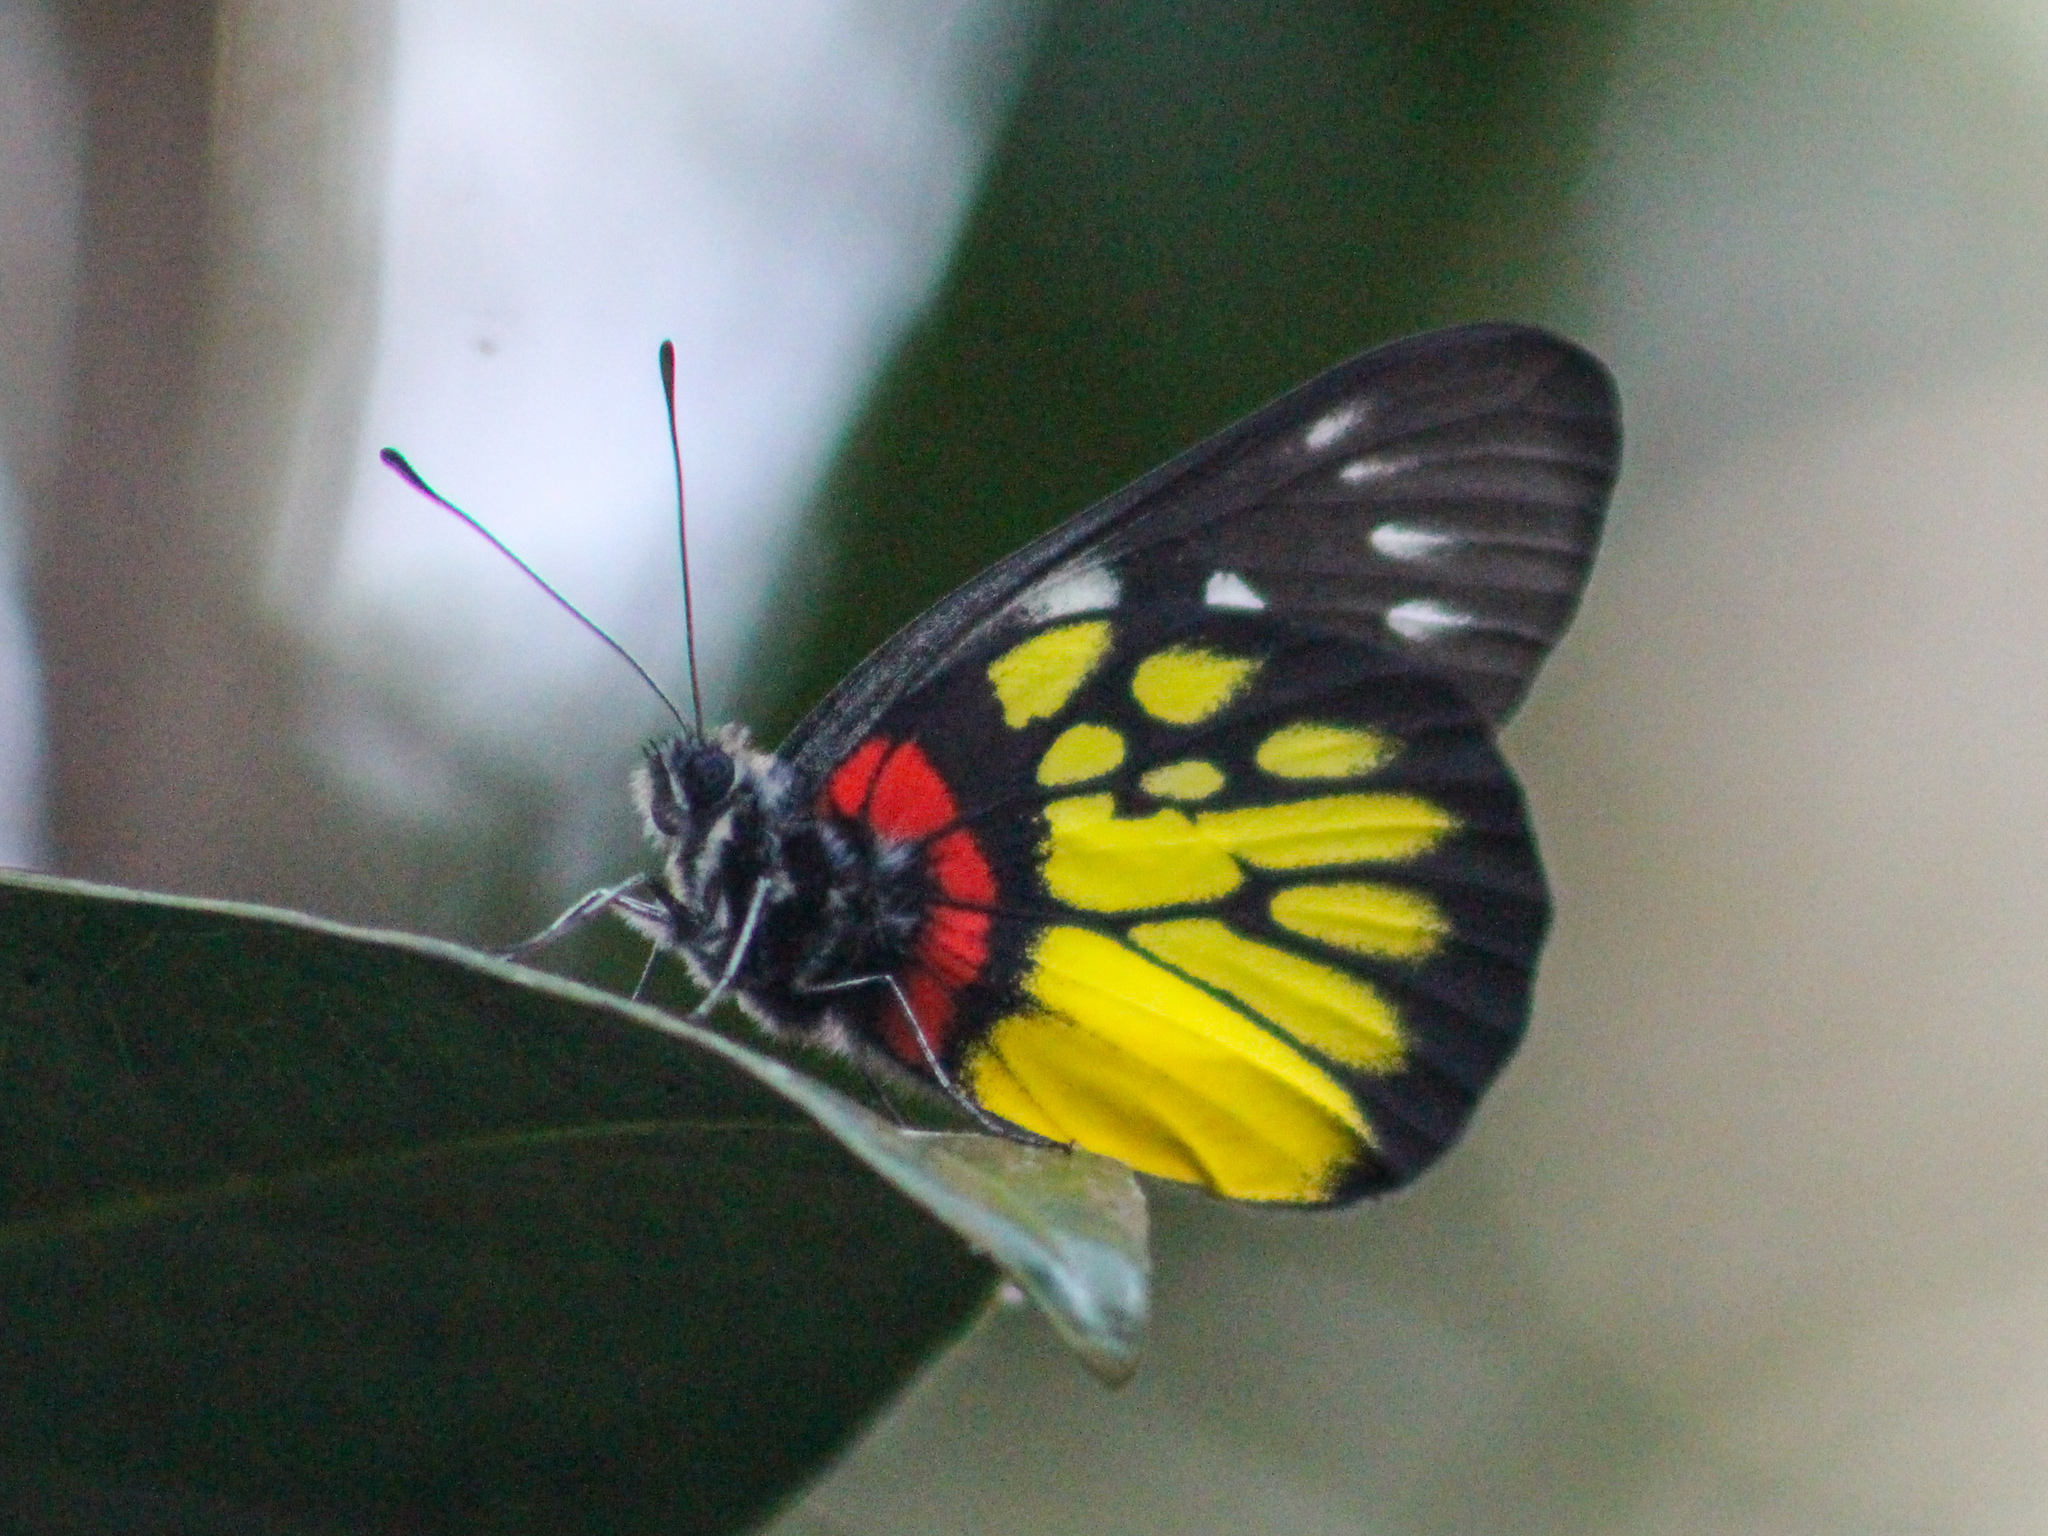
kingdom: Animalia
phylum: Arthropoda
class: Insecta
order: Lepidoptera
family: Pieridae
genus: Delias
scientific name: Delias pasithoe
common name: Red-base jezebel
